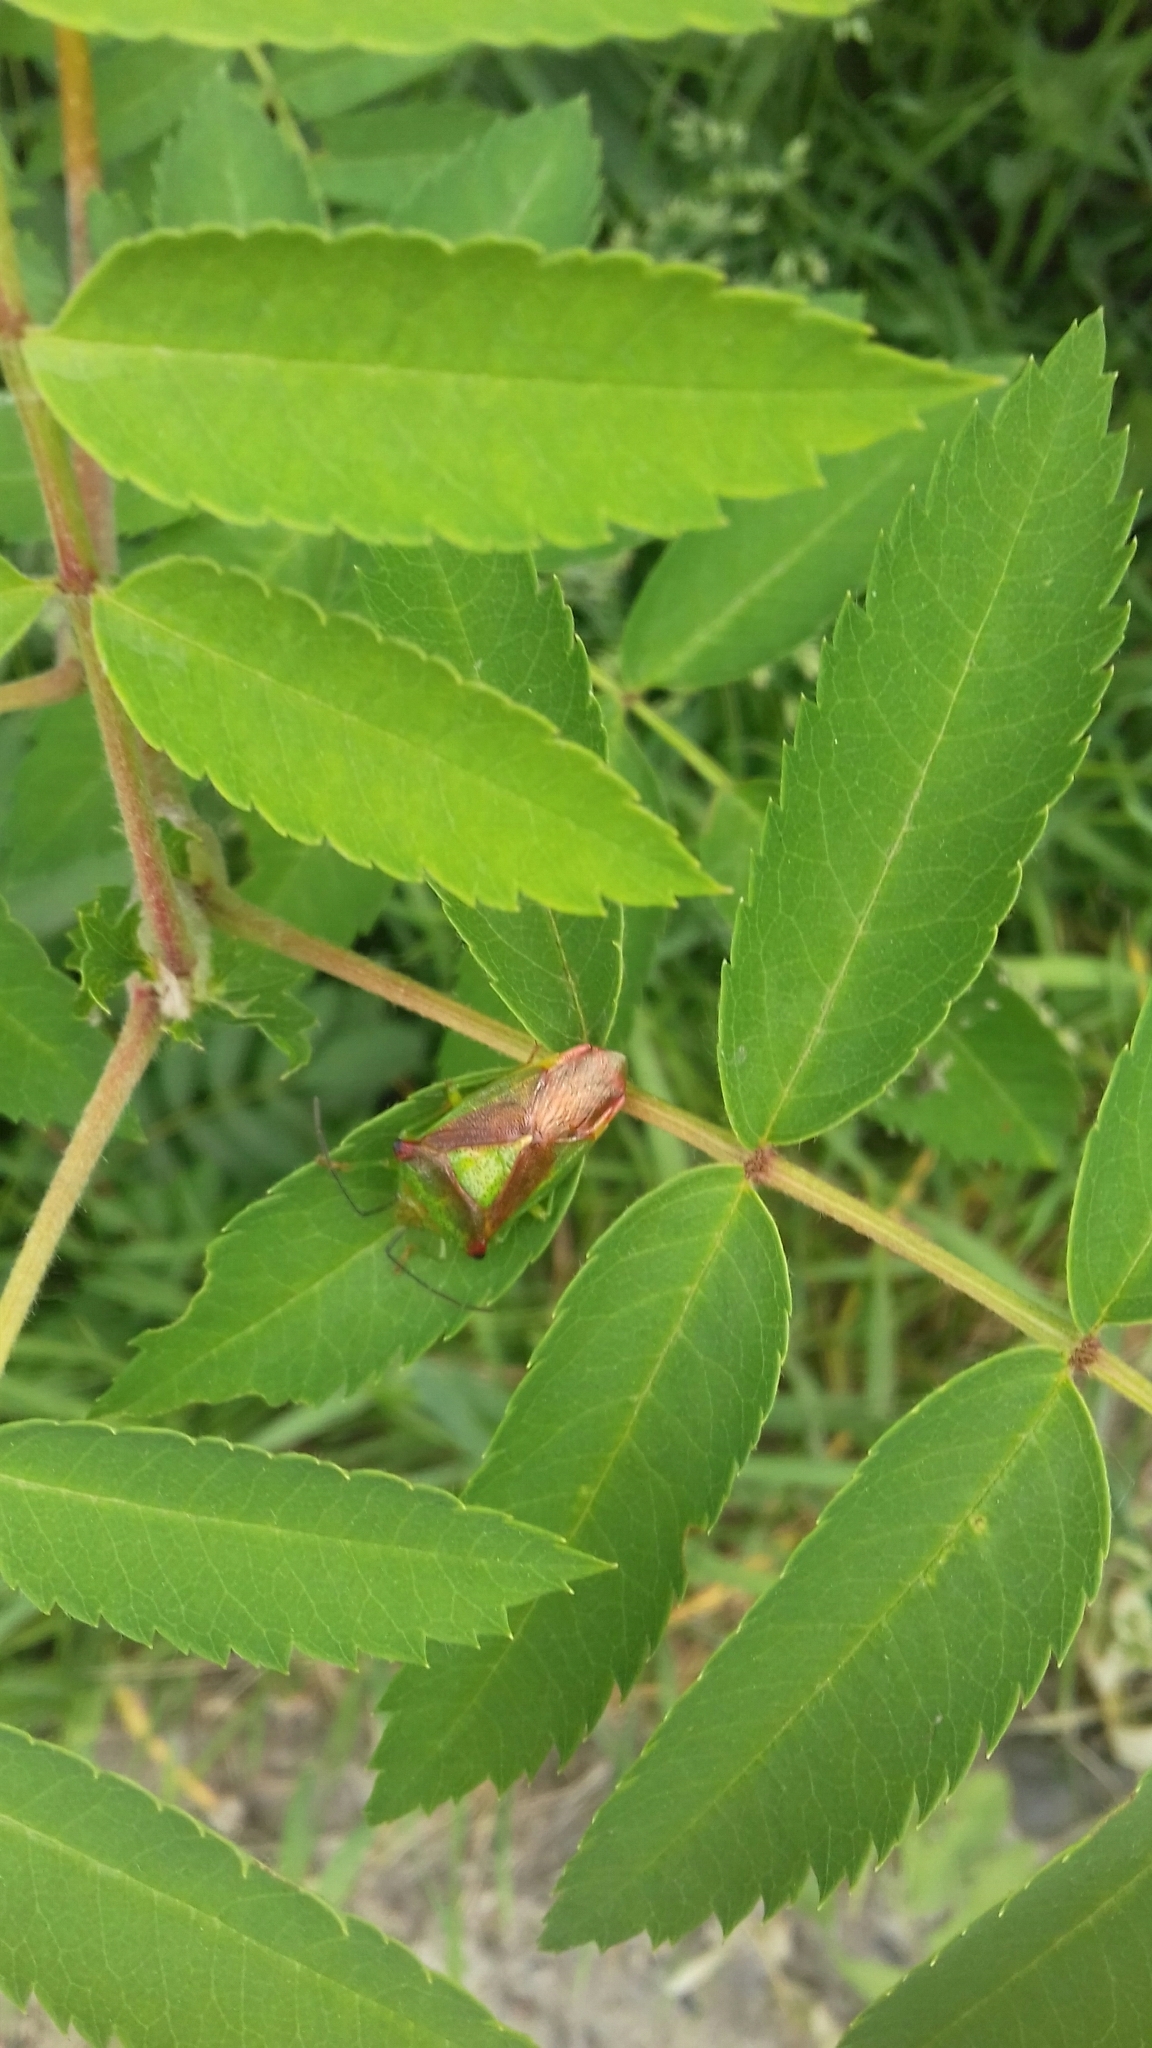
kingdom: Animalia
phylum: Arthropoda
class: Insecta
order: Hemiptera
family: Acanthosomatidae
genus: Acanthosoma
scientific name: Acanthosoma haemorrhoidale
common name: Hawthorn shieldbug
